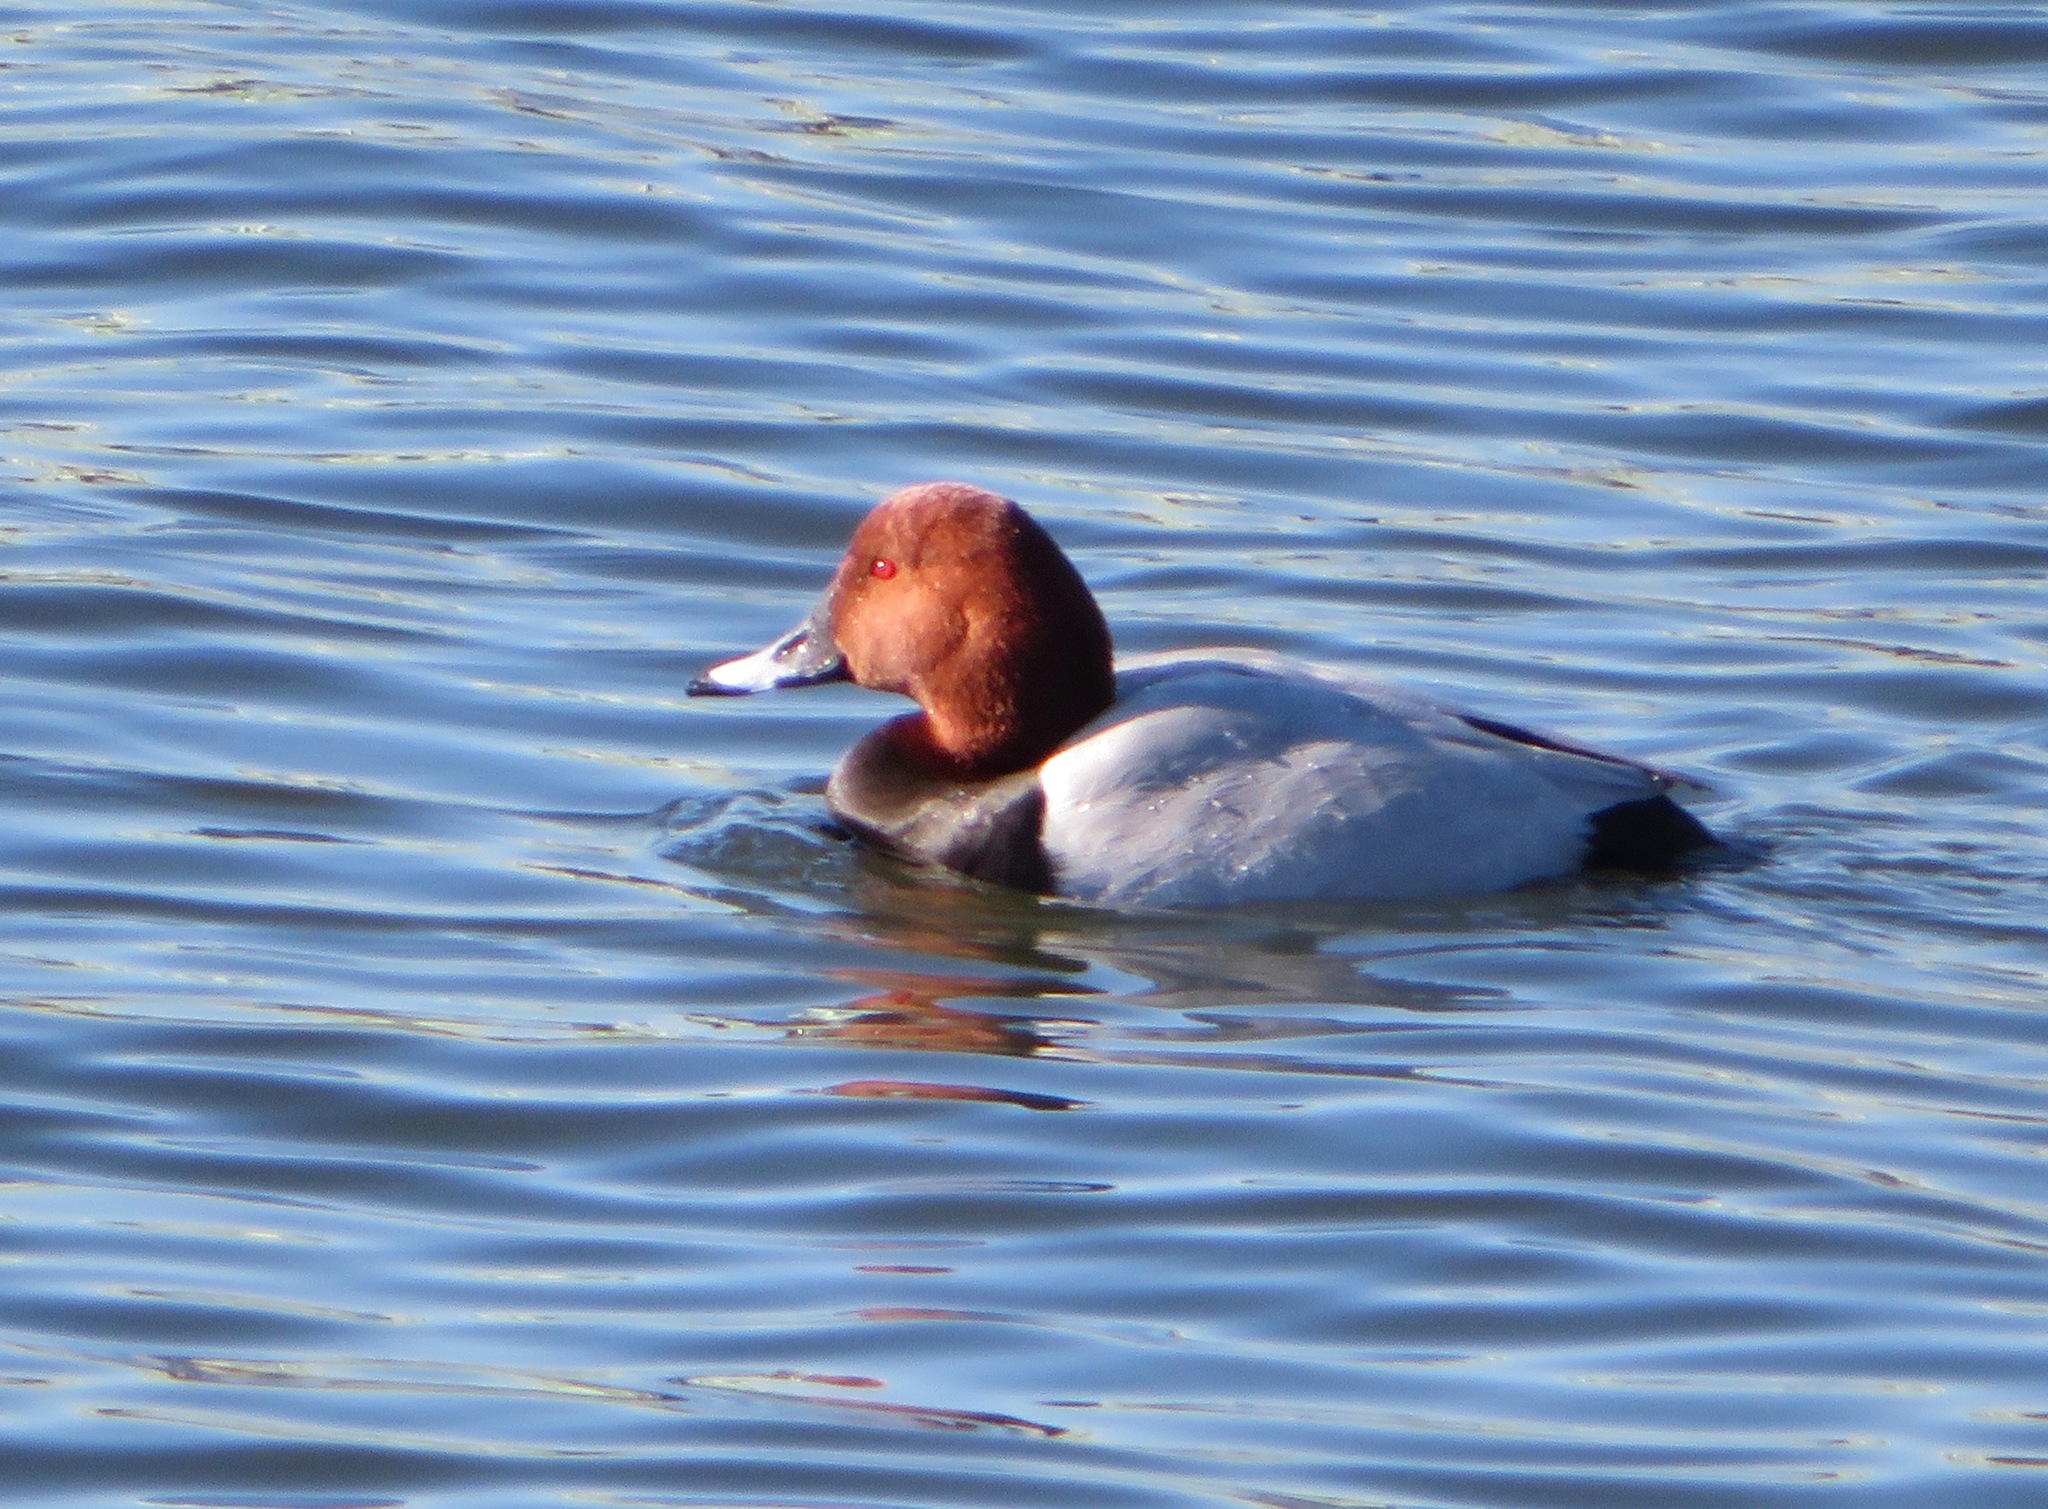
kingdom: Animalia
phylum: Chordata
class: Aves
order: Anseriformes
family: Anatidae
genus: Aythya
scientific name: Aythya ferina
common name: Common pochard
